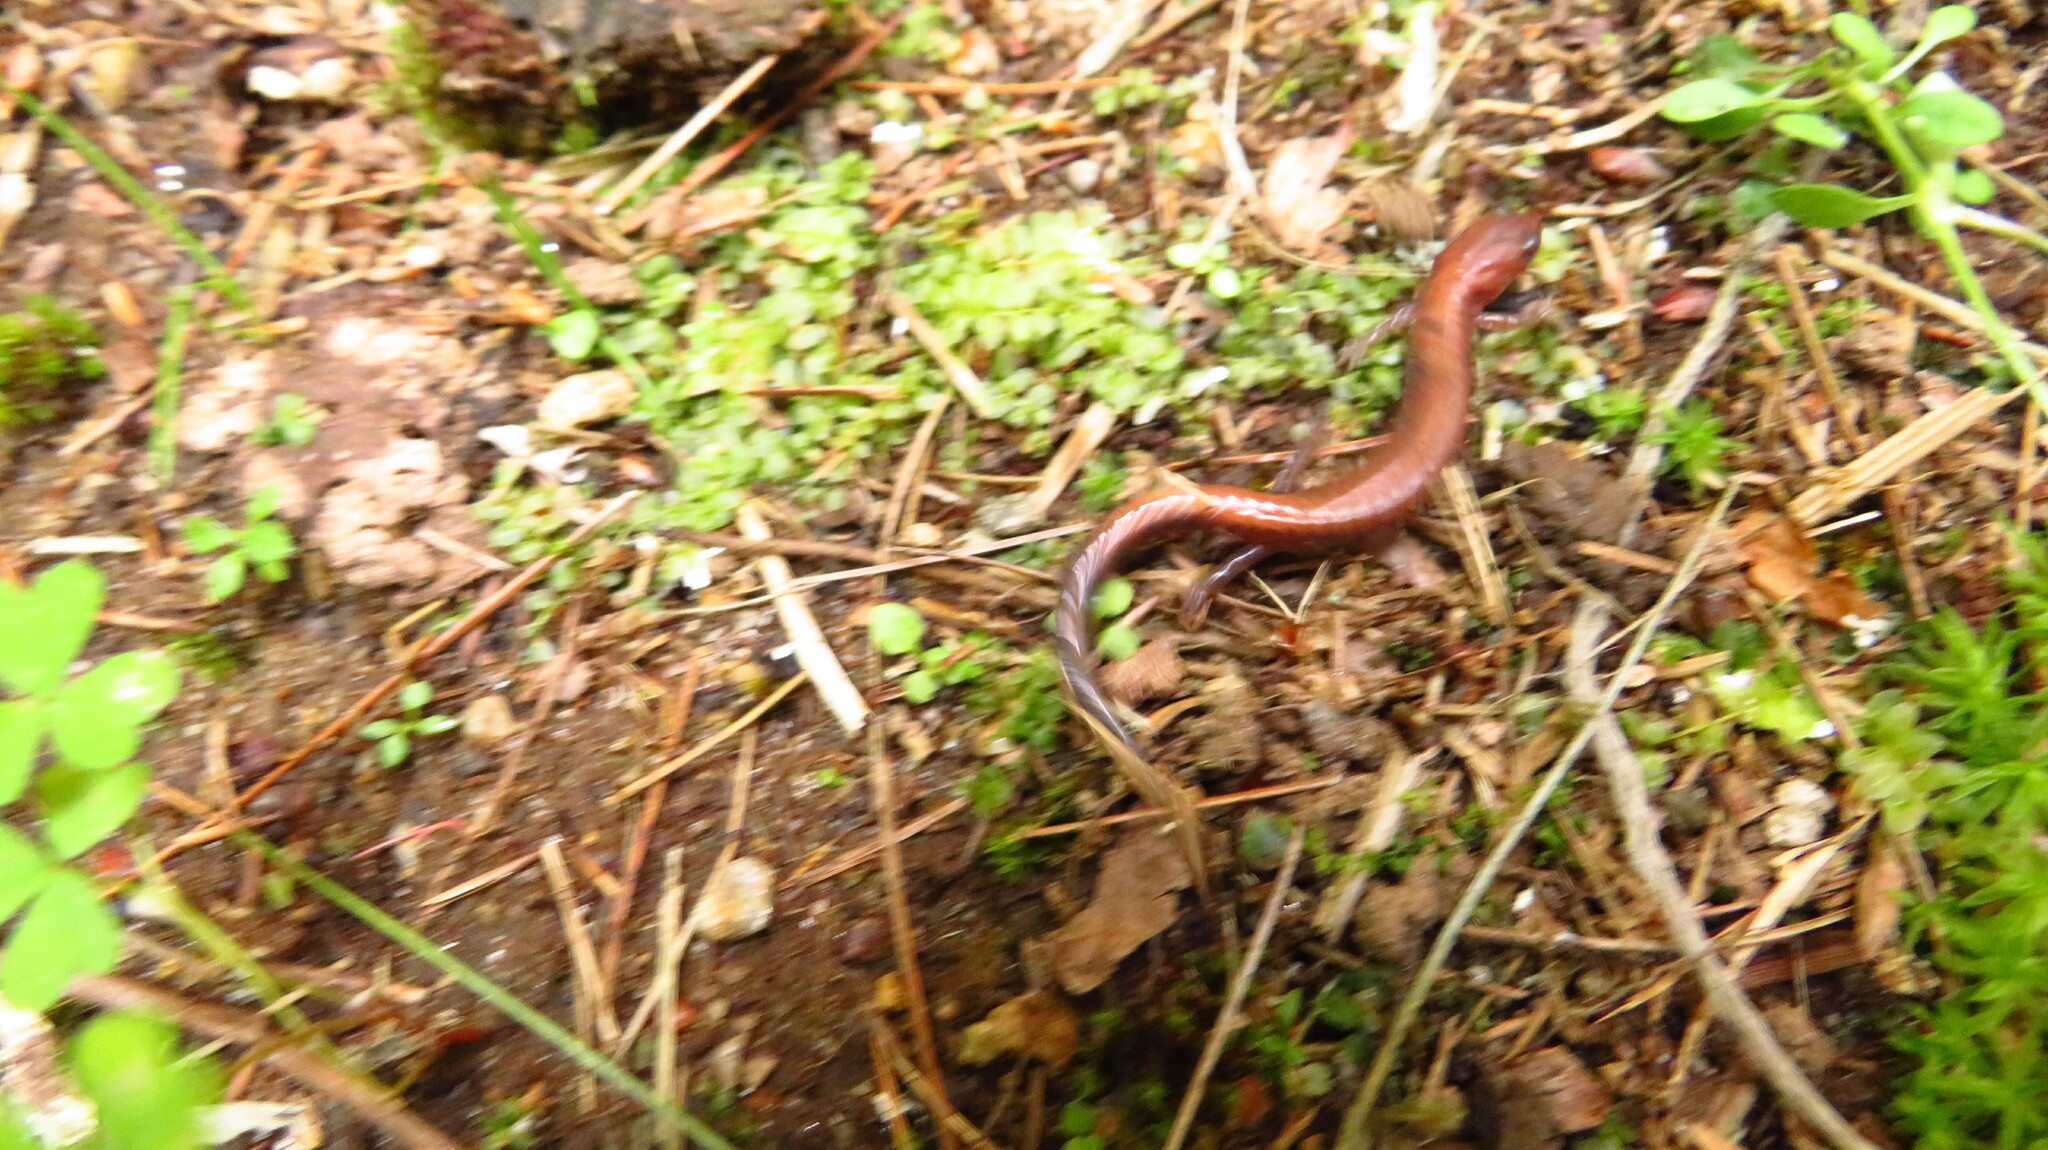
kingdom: Animalia
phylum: Chordata
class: Amphibia
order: Caudata
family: Plethodontidae
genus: Plethodon
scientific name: Plethodon cinereus
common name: Redback salamander
